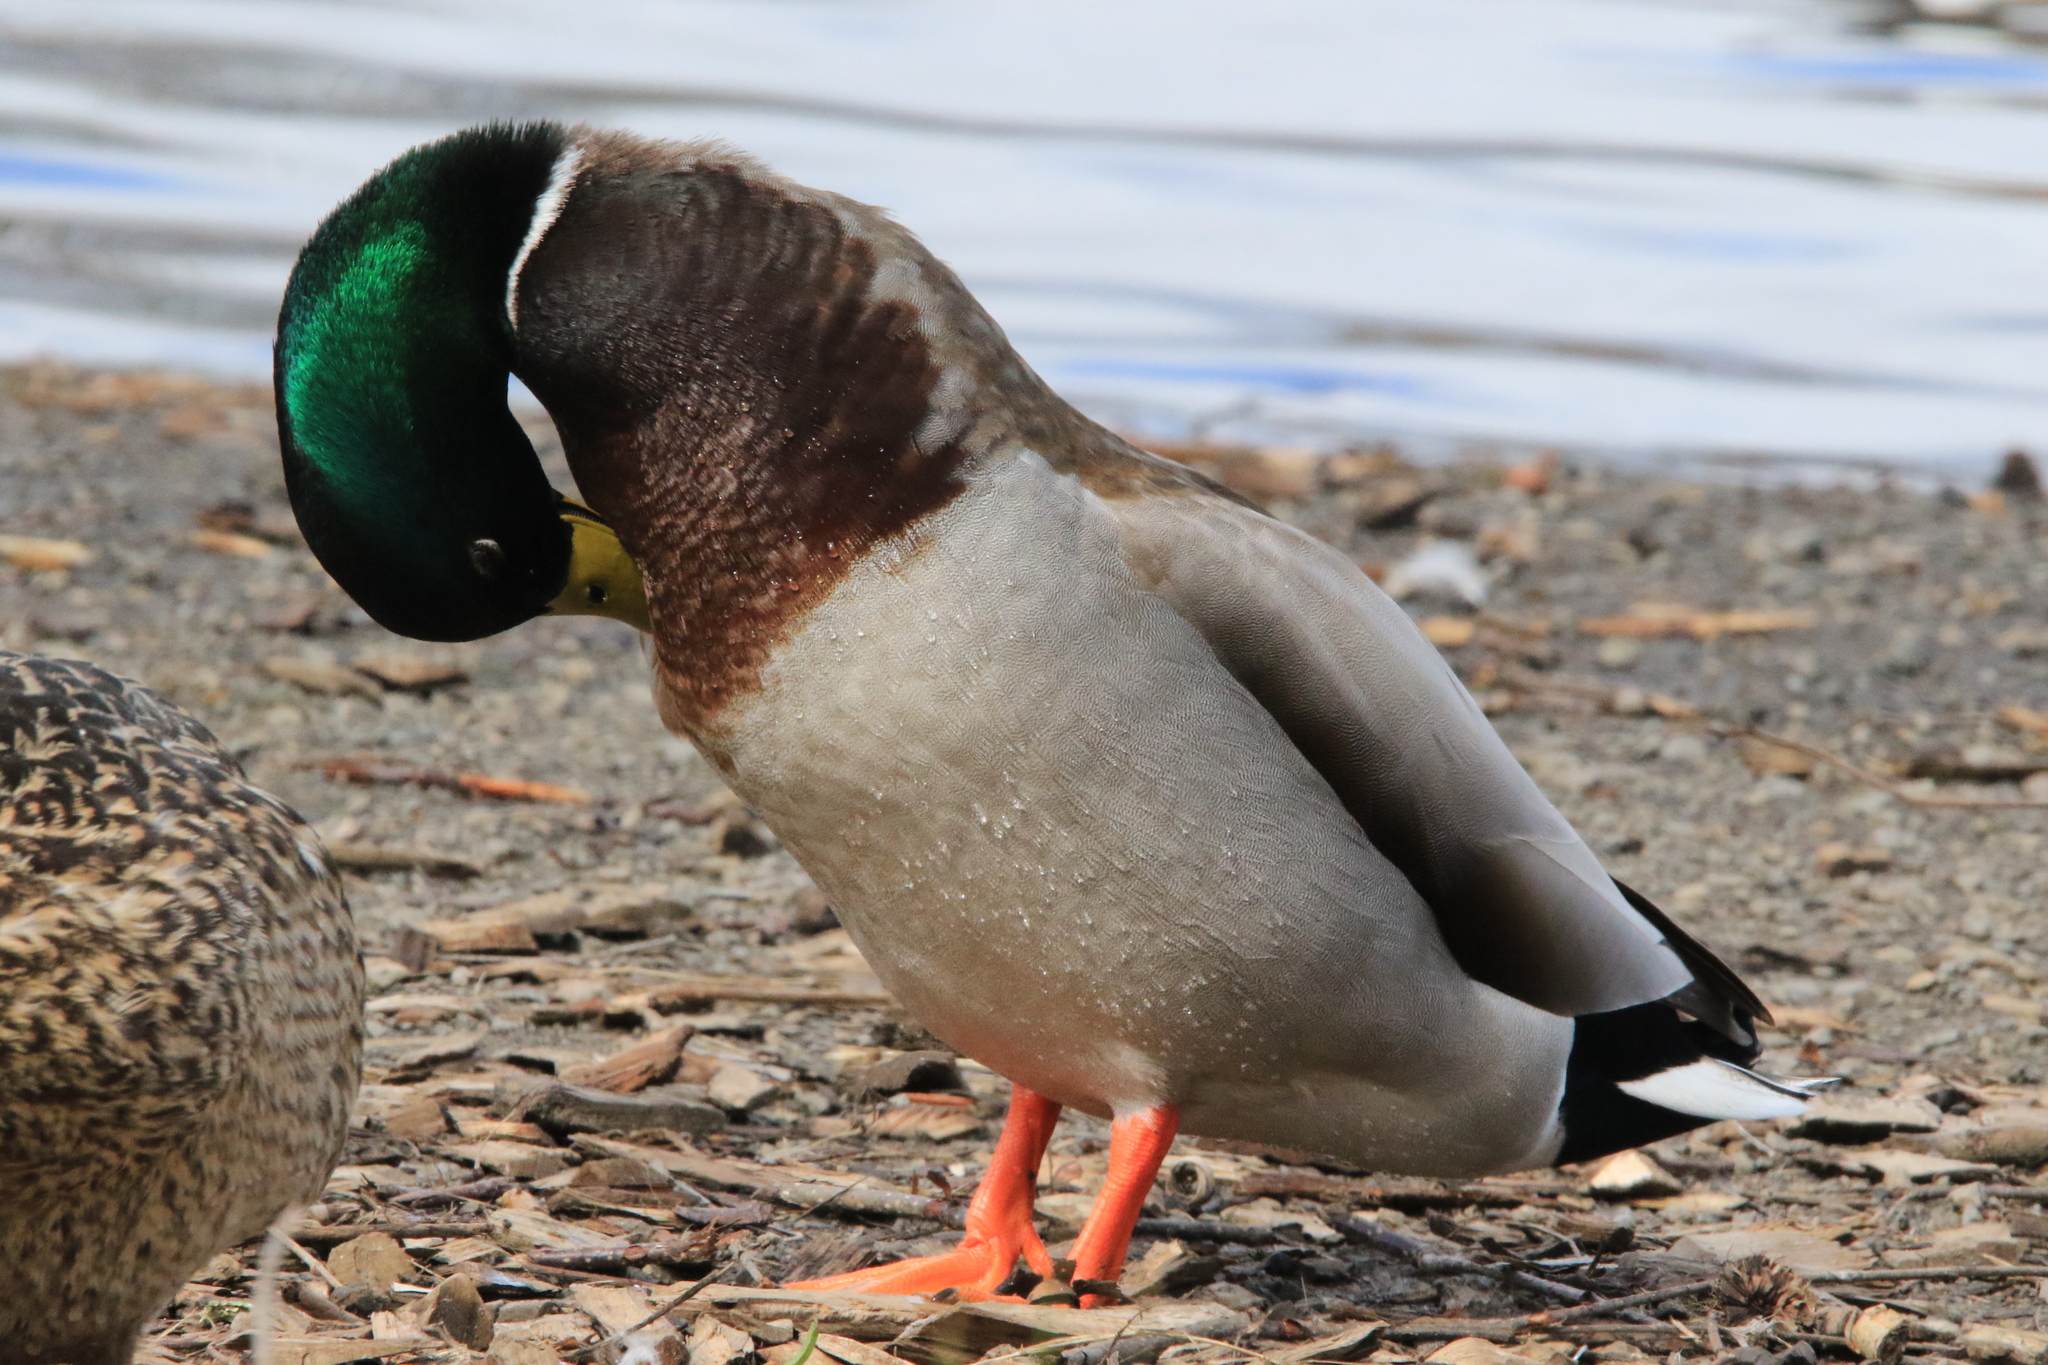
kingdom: Animalia
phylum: Chordata
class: Aves
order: Anseriformes
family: Anatidae
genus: Anas
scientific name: Anas platyrhynchos
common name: Mallard
